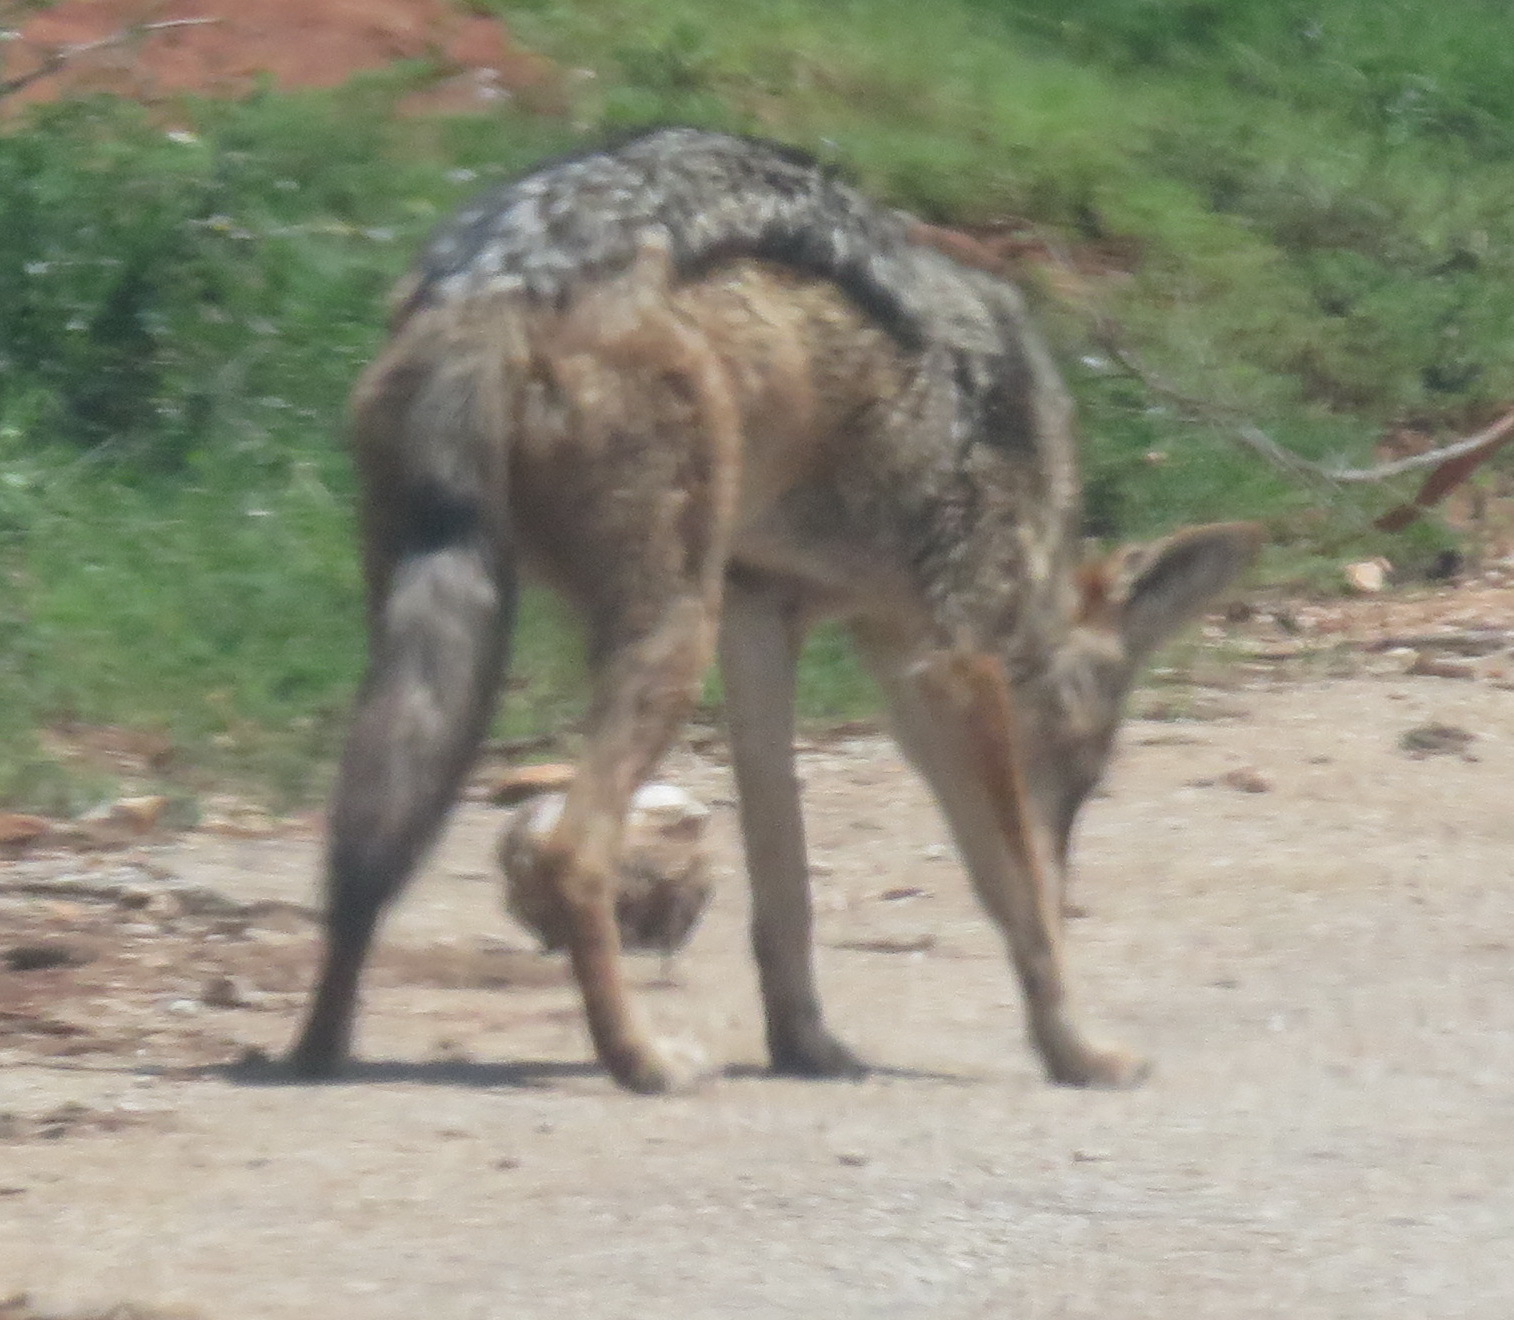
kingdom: Animalia
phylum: Chordata
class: Mammalia
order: Carnivora
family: Canidae
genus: Lupulella
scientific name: Lupulella
